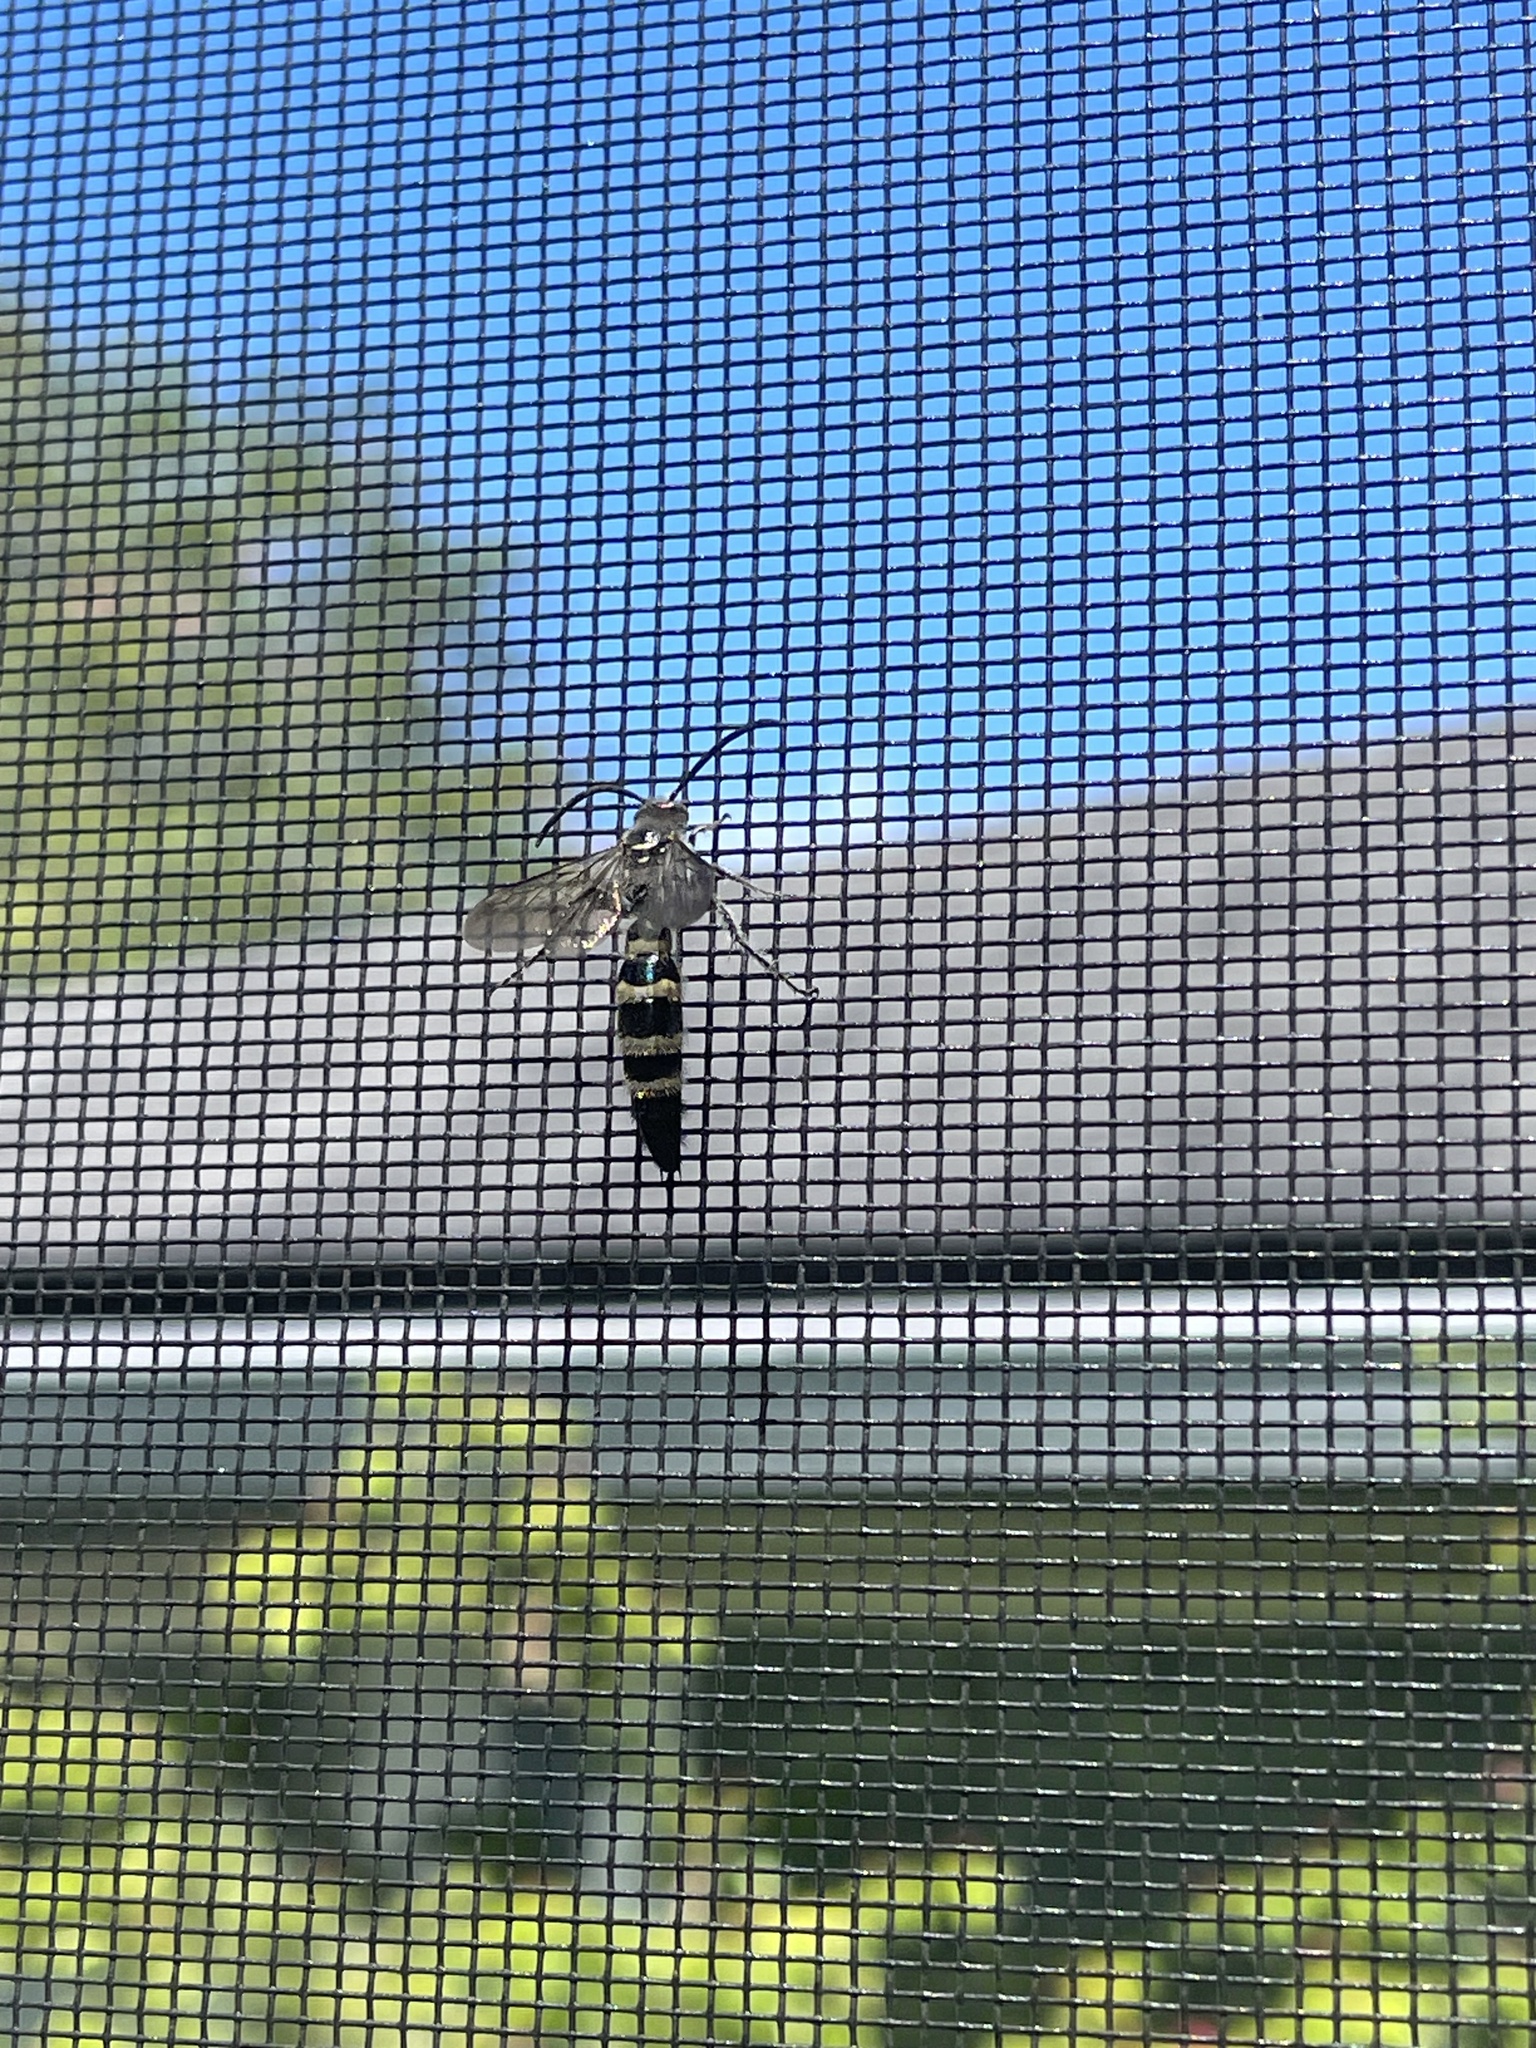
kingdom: Animalia
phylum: Arthropoda
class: Insecta
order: Hymenoptera
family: Scoliidae
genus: Dielis
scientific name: Dielis
